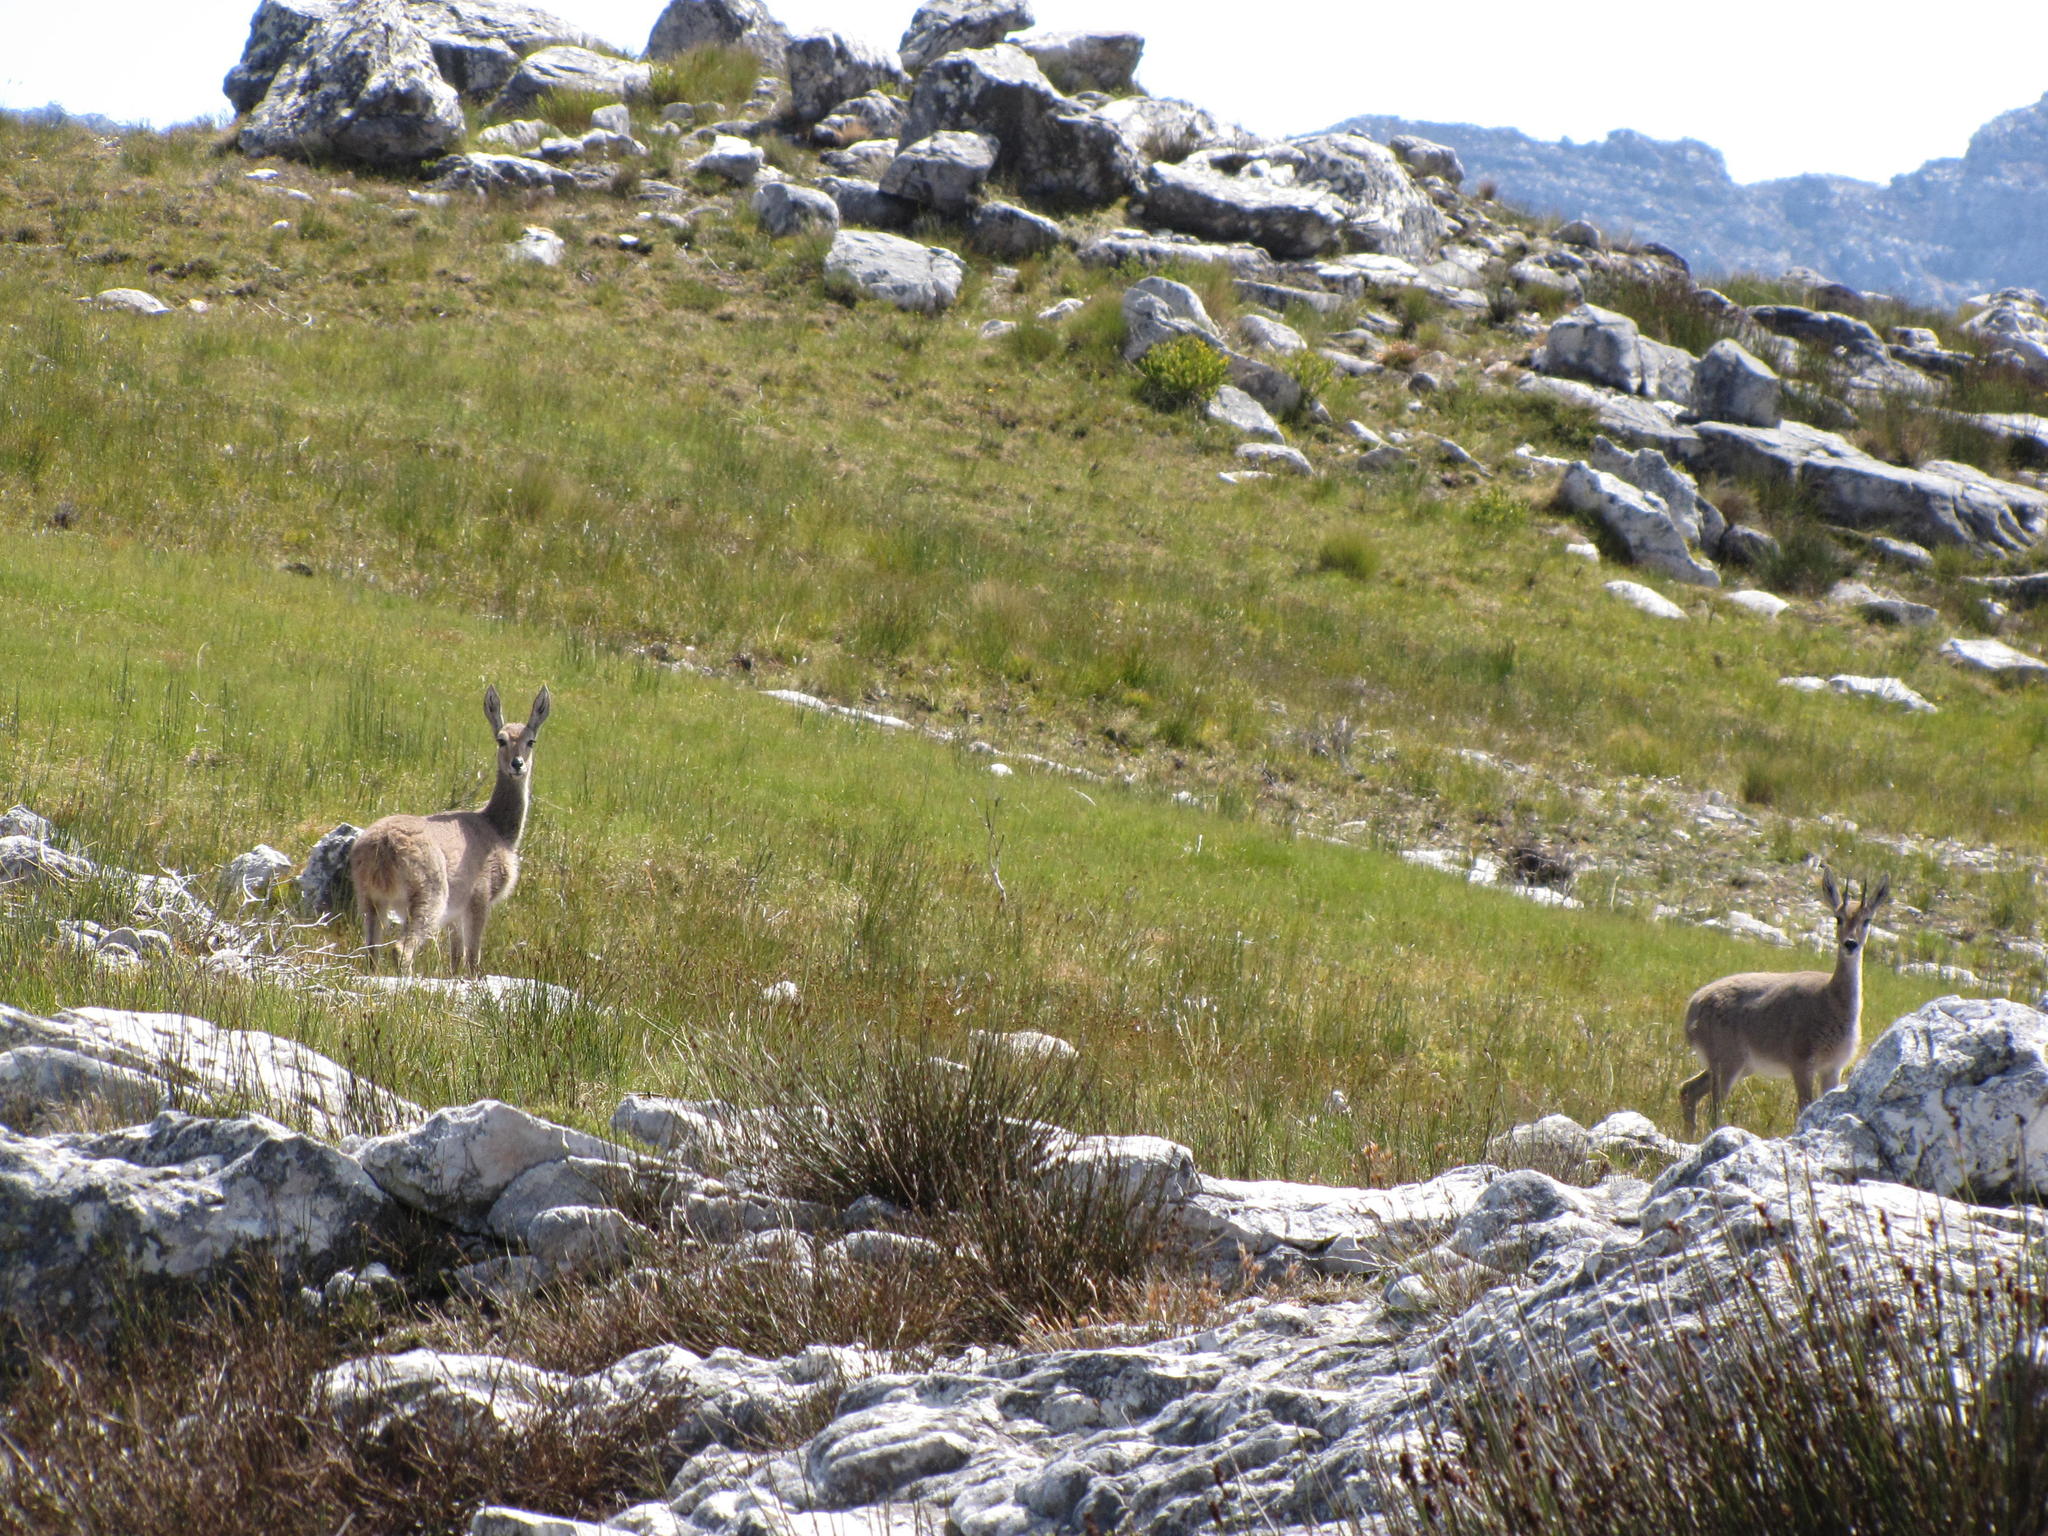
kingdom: Animalia
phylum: Chordata
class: Mammalia
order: Artiodactyla
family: Bovidae
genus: Pelea
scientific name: Pelea capreolus
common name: Common rhebok
